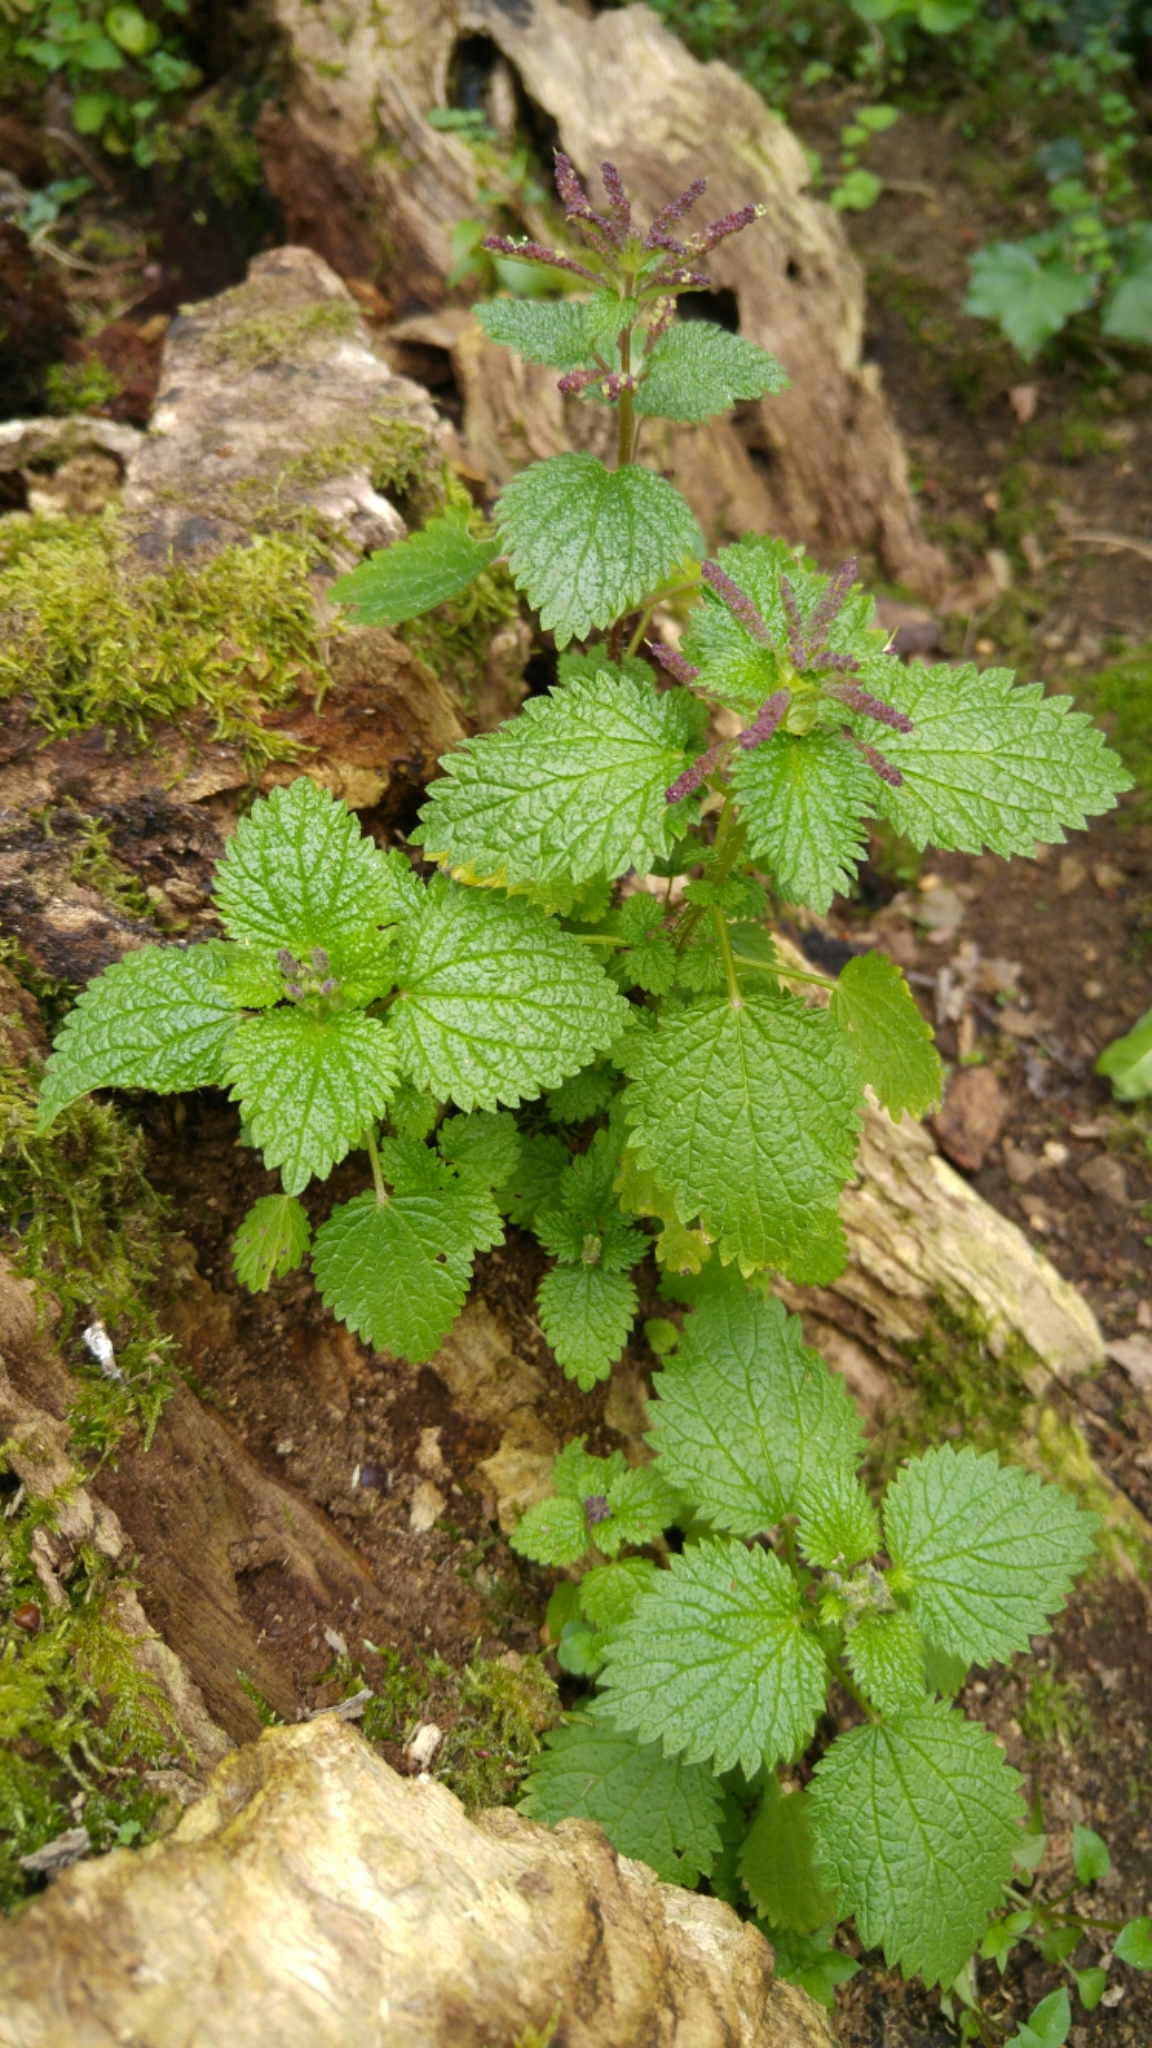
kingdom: Plantae
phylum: Tracheophyta
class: Magnoliopsida
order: Rosales
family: Urticaceae
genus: Urtica
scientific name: Urtica membranacea
